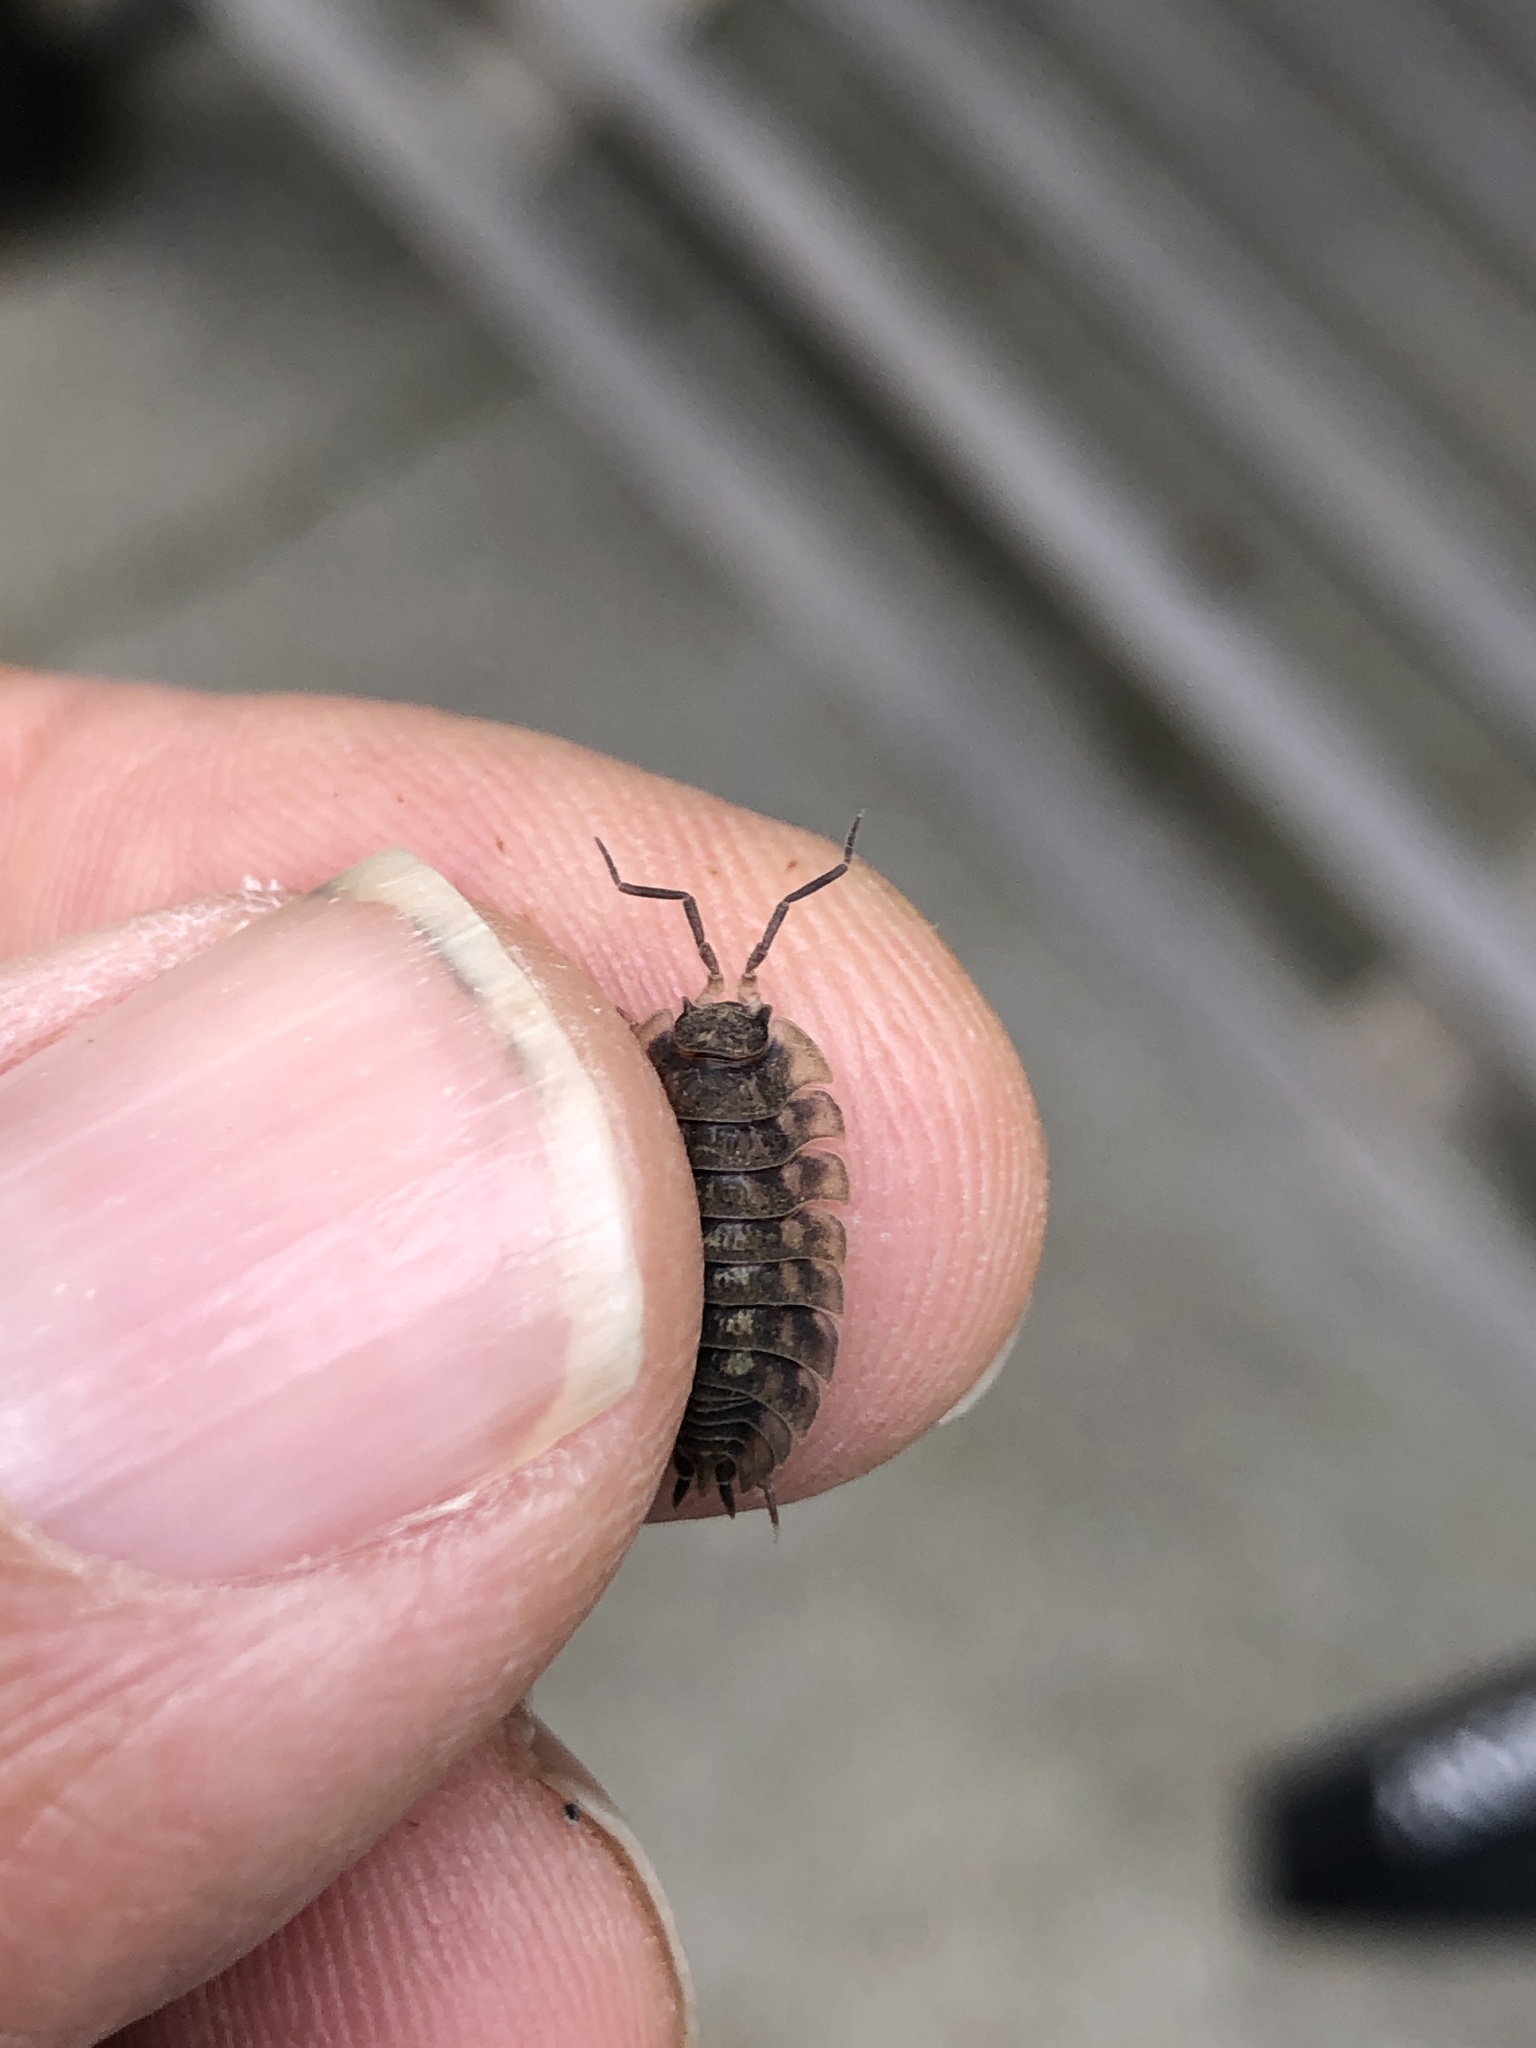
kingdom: Animalia
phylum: Arthropoda
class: Malacostraca
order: Isopoda
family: Oniscidae
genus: Oniscus
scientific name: Oniscus asellus
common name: Common shiny woodlouse
